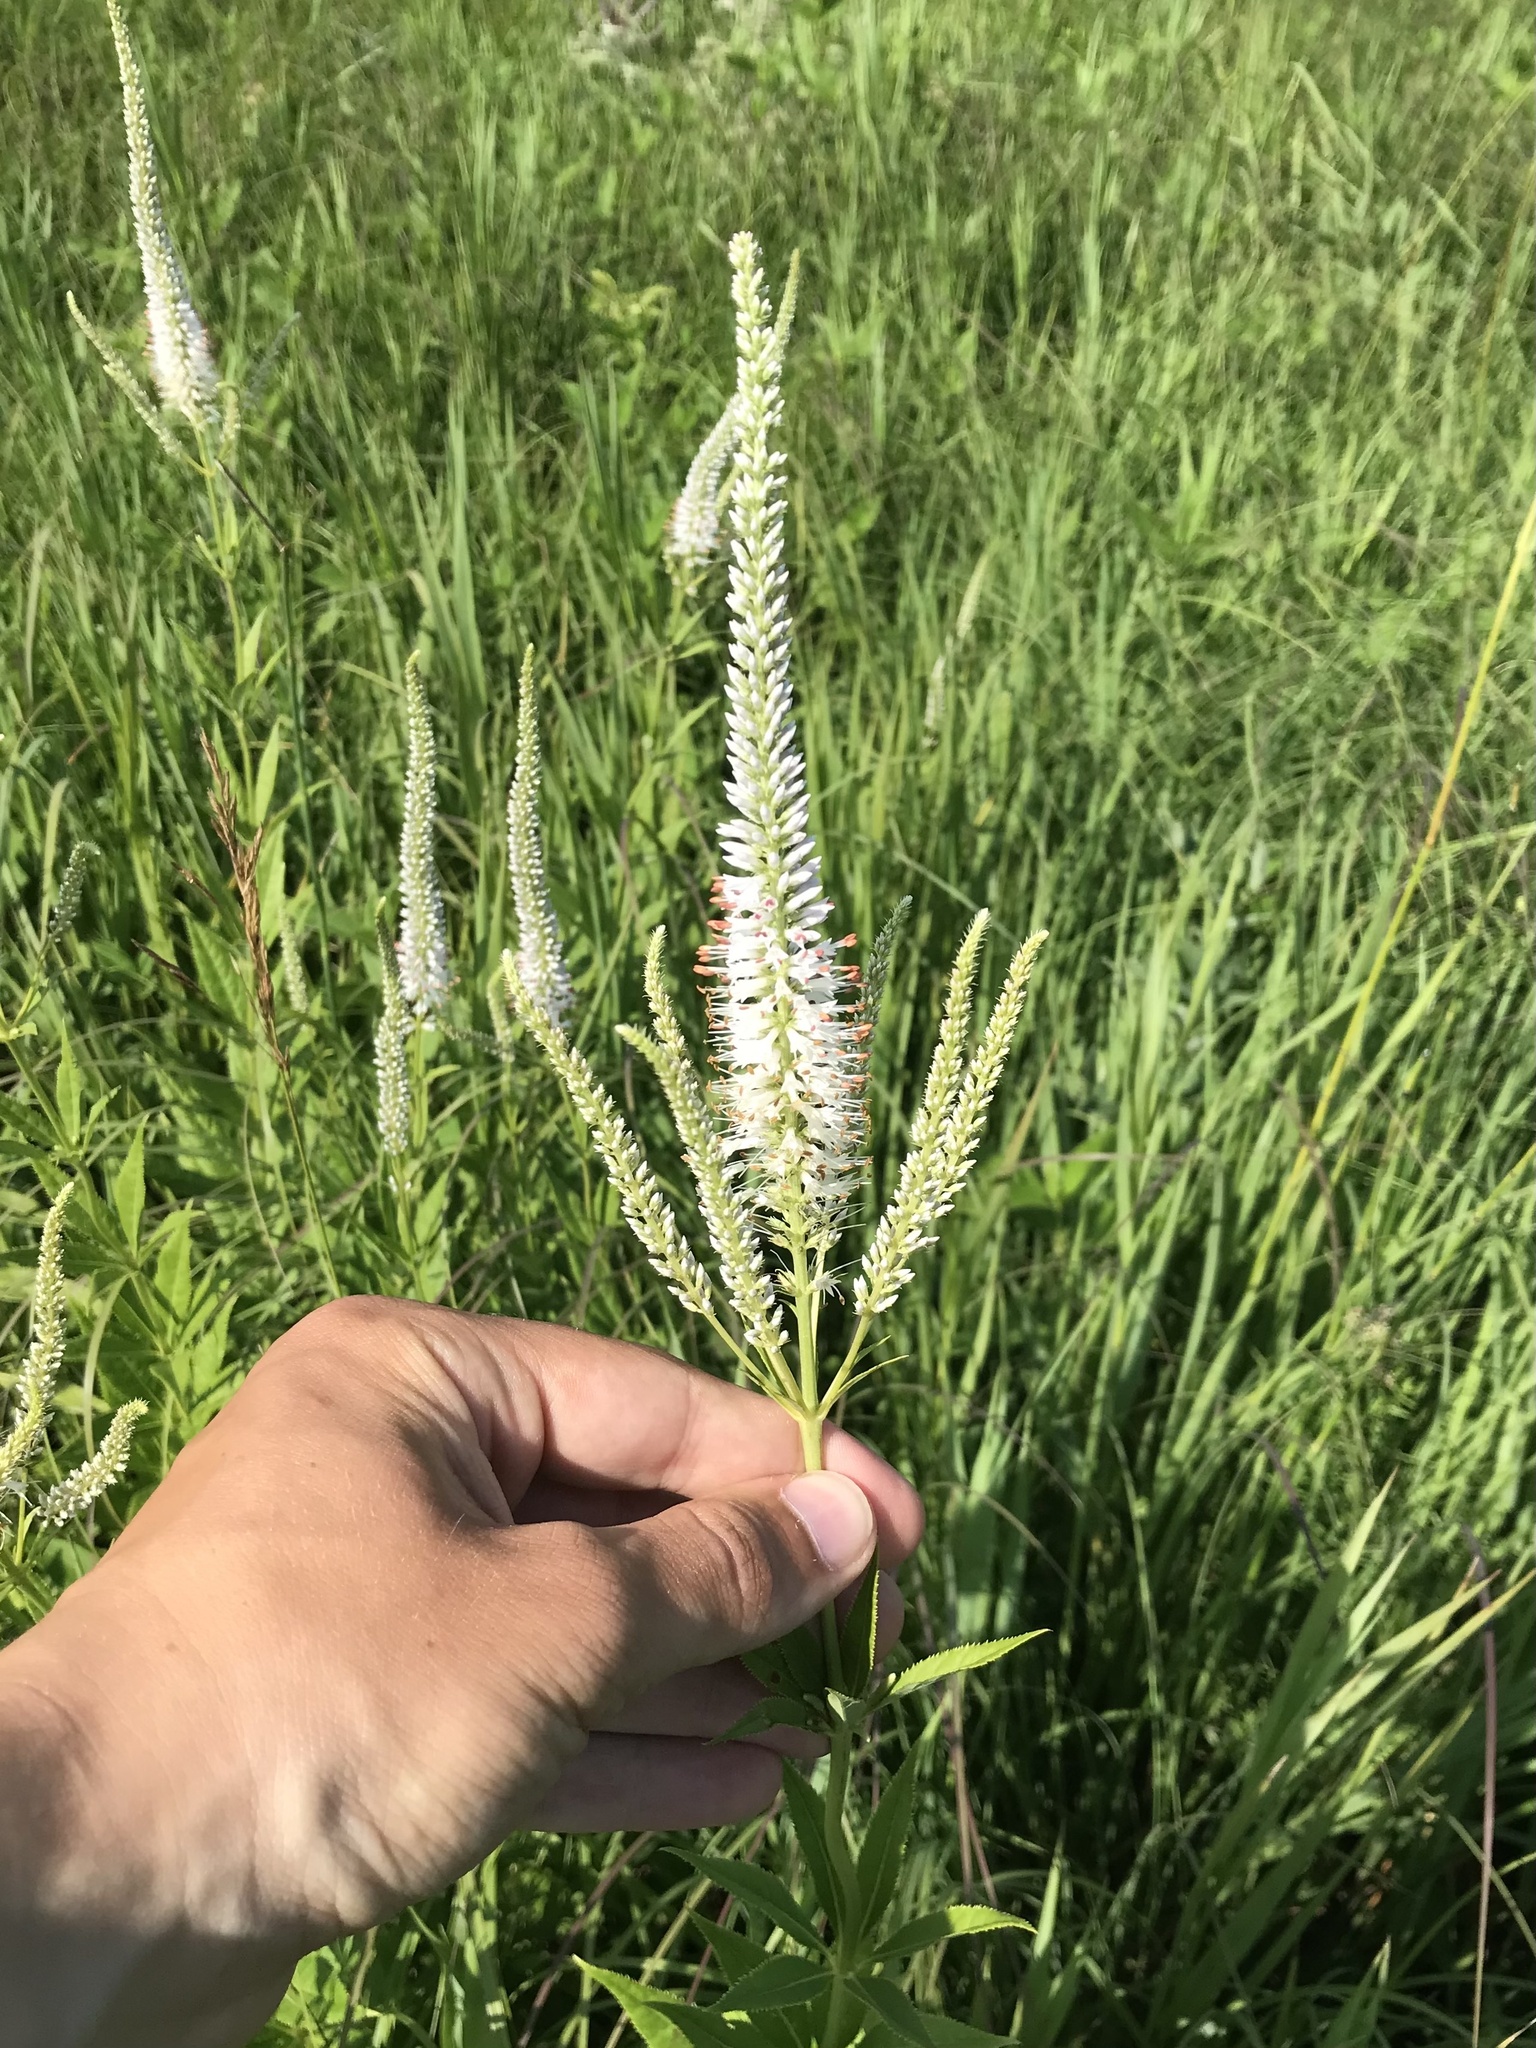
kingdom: Plantae
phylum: Tracheophyta
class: Magnoliopsida
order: Lamiales
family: Plantaginaceae
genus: Veronicastrum
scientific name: Veronicastrum virginicum
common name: Blackroot
